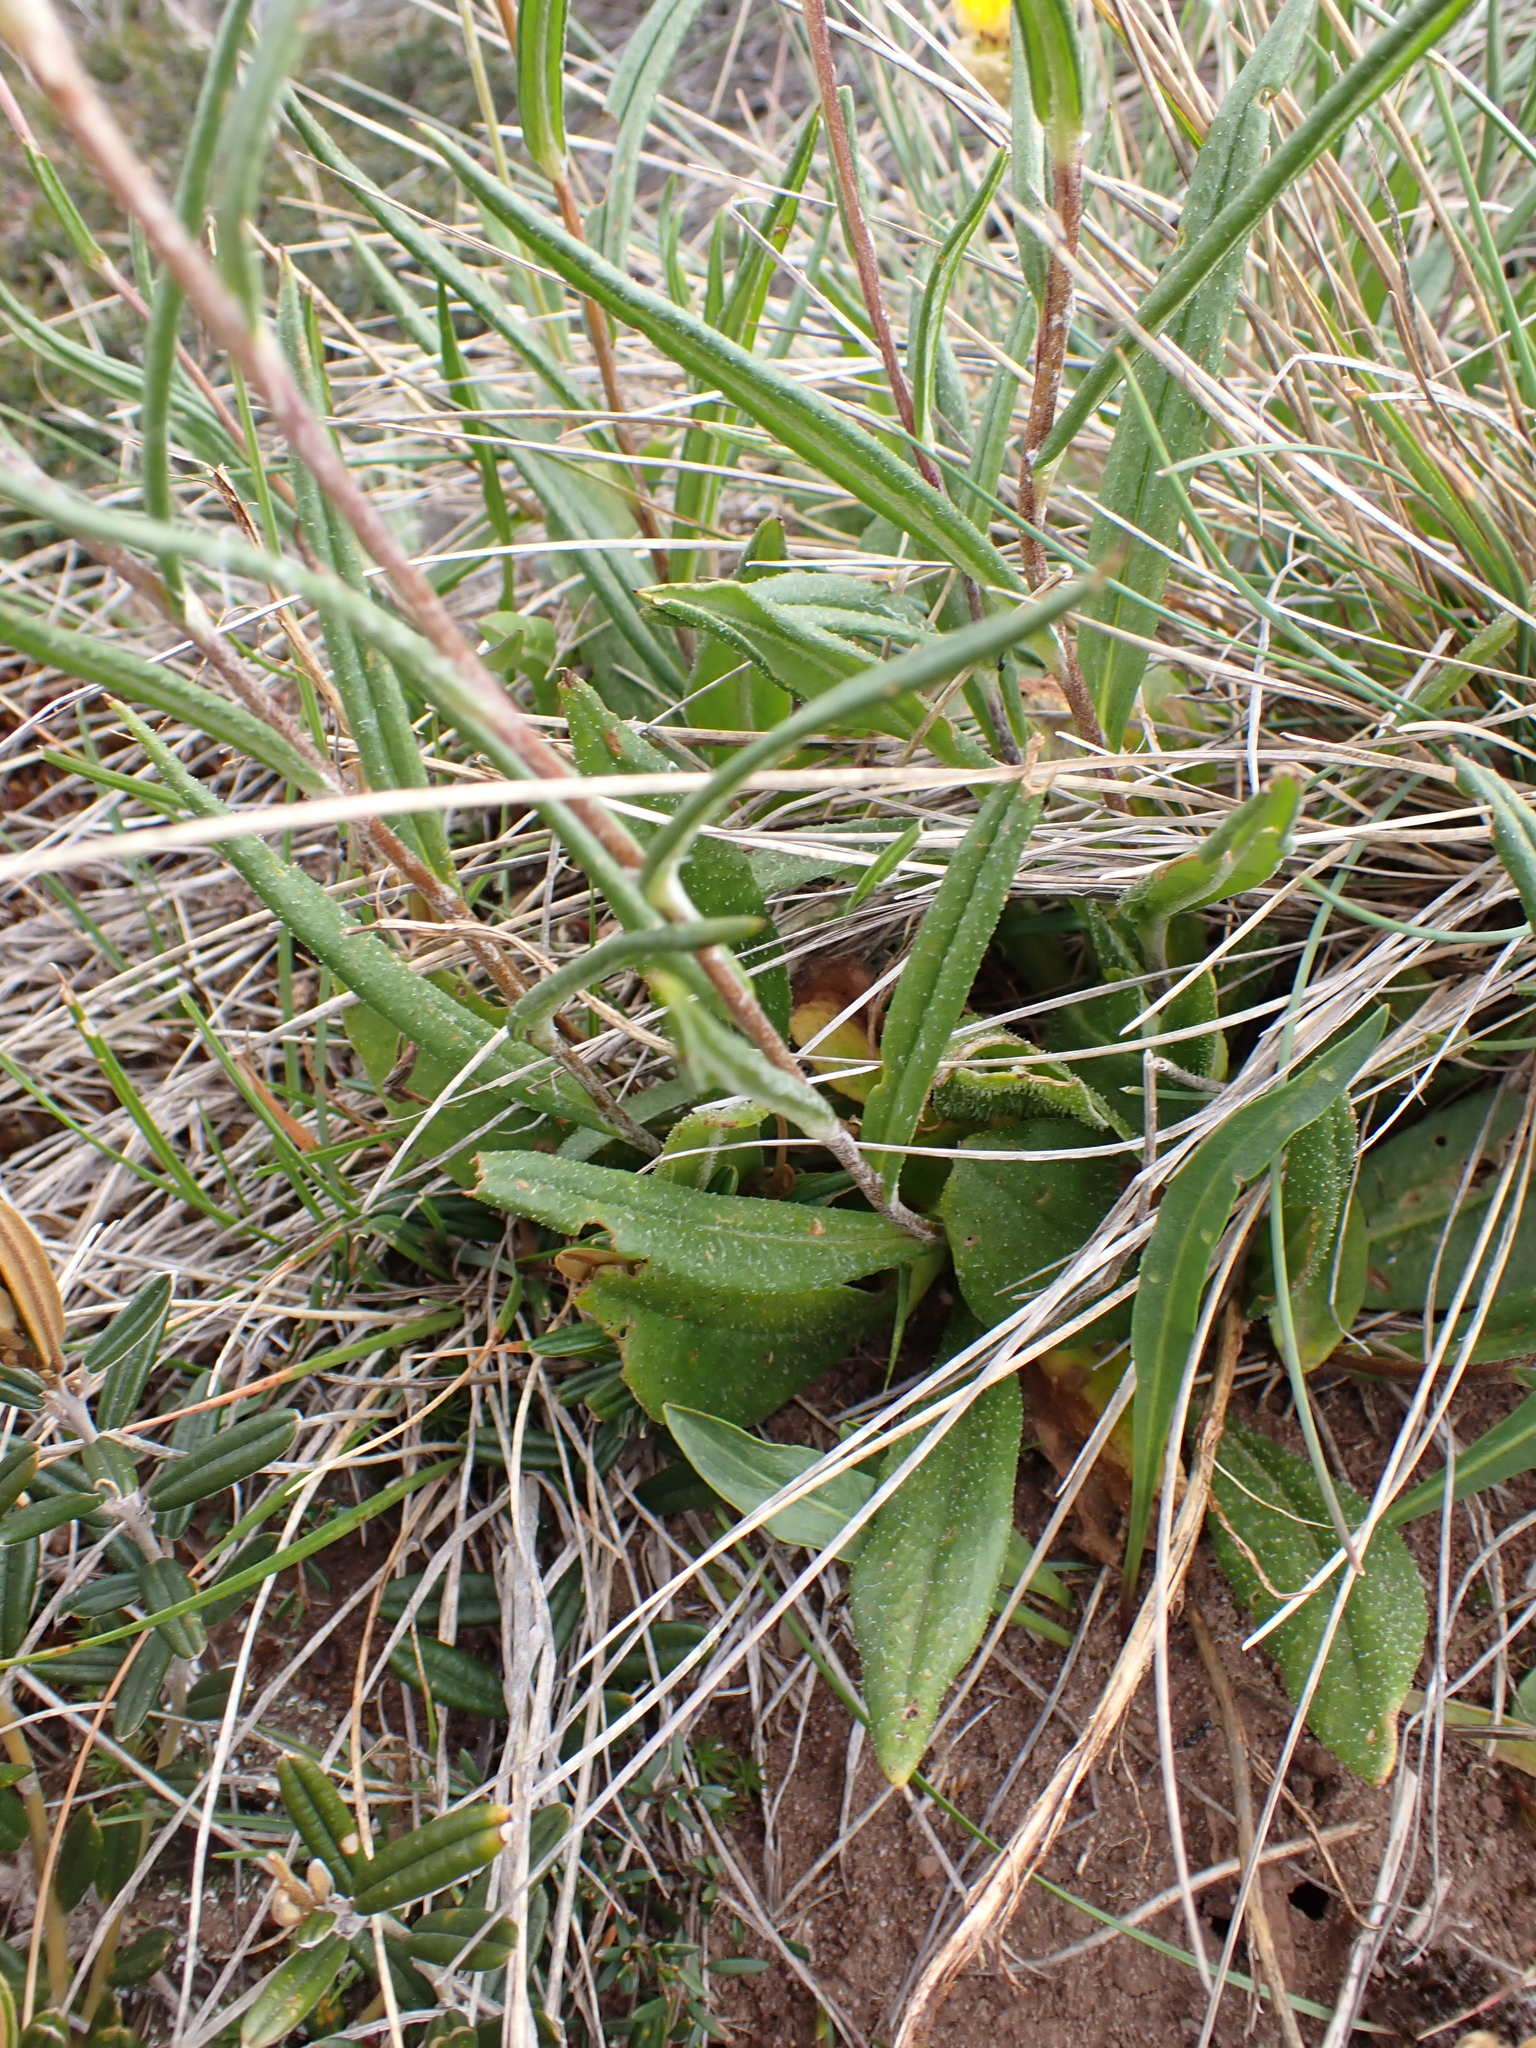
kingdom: Plantae
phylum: Tracheophyta
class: Magnoliopsida
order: Asterales
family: Asteraceae
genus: Podolepis
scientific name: Podolepis decipiens
